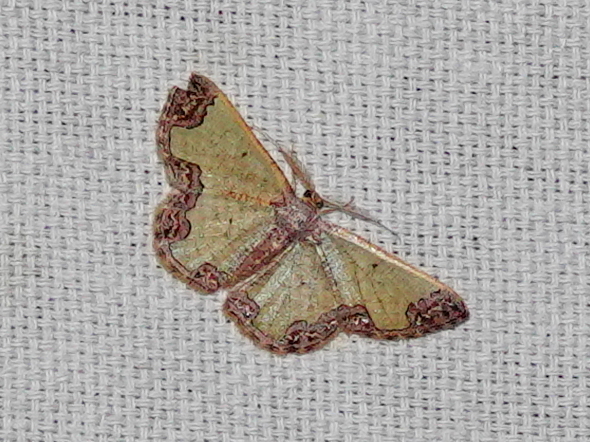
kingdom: Animalia
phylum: Arthropoda
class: Insecta
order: Lepidoptera
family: Geometridae
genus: Zamarada
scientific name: Zamarada excisa
